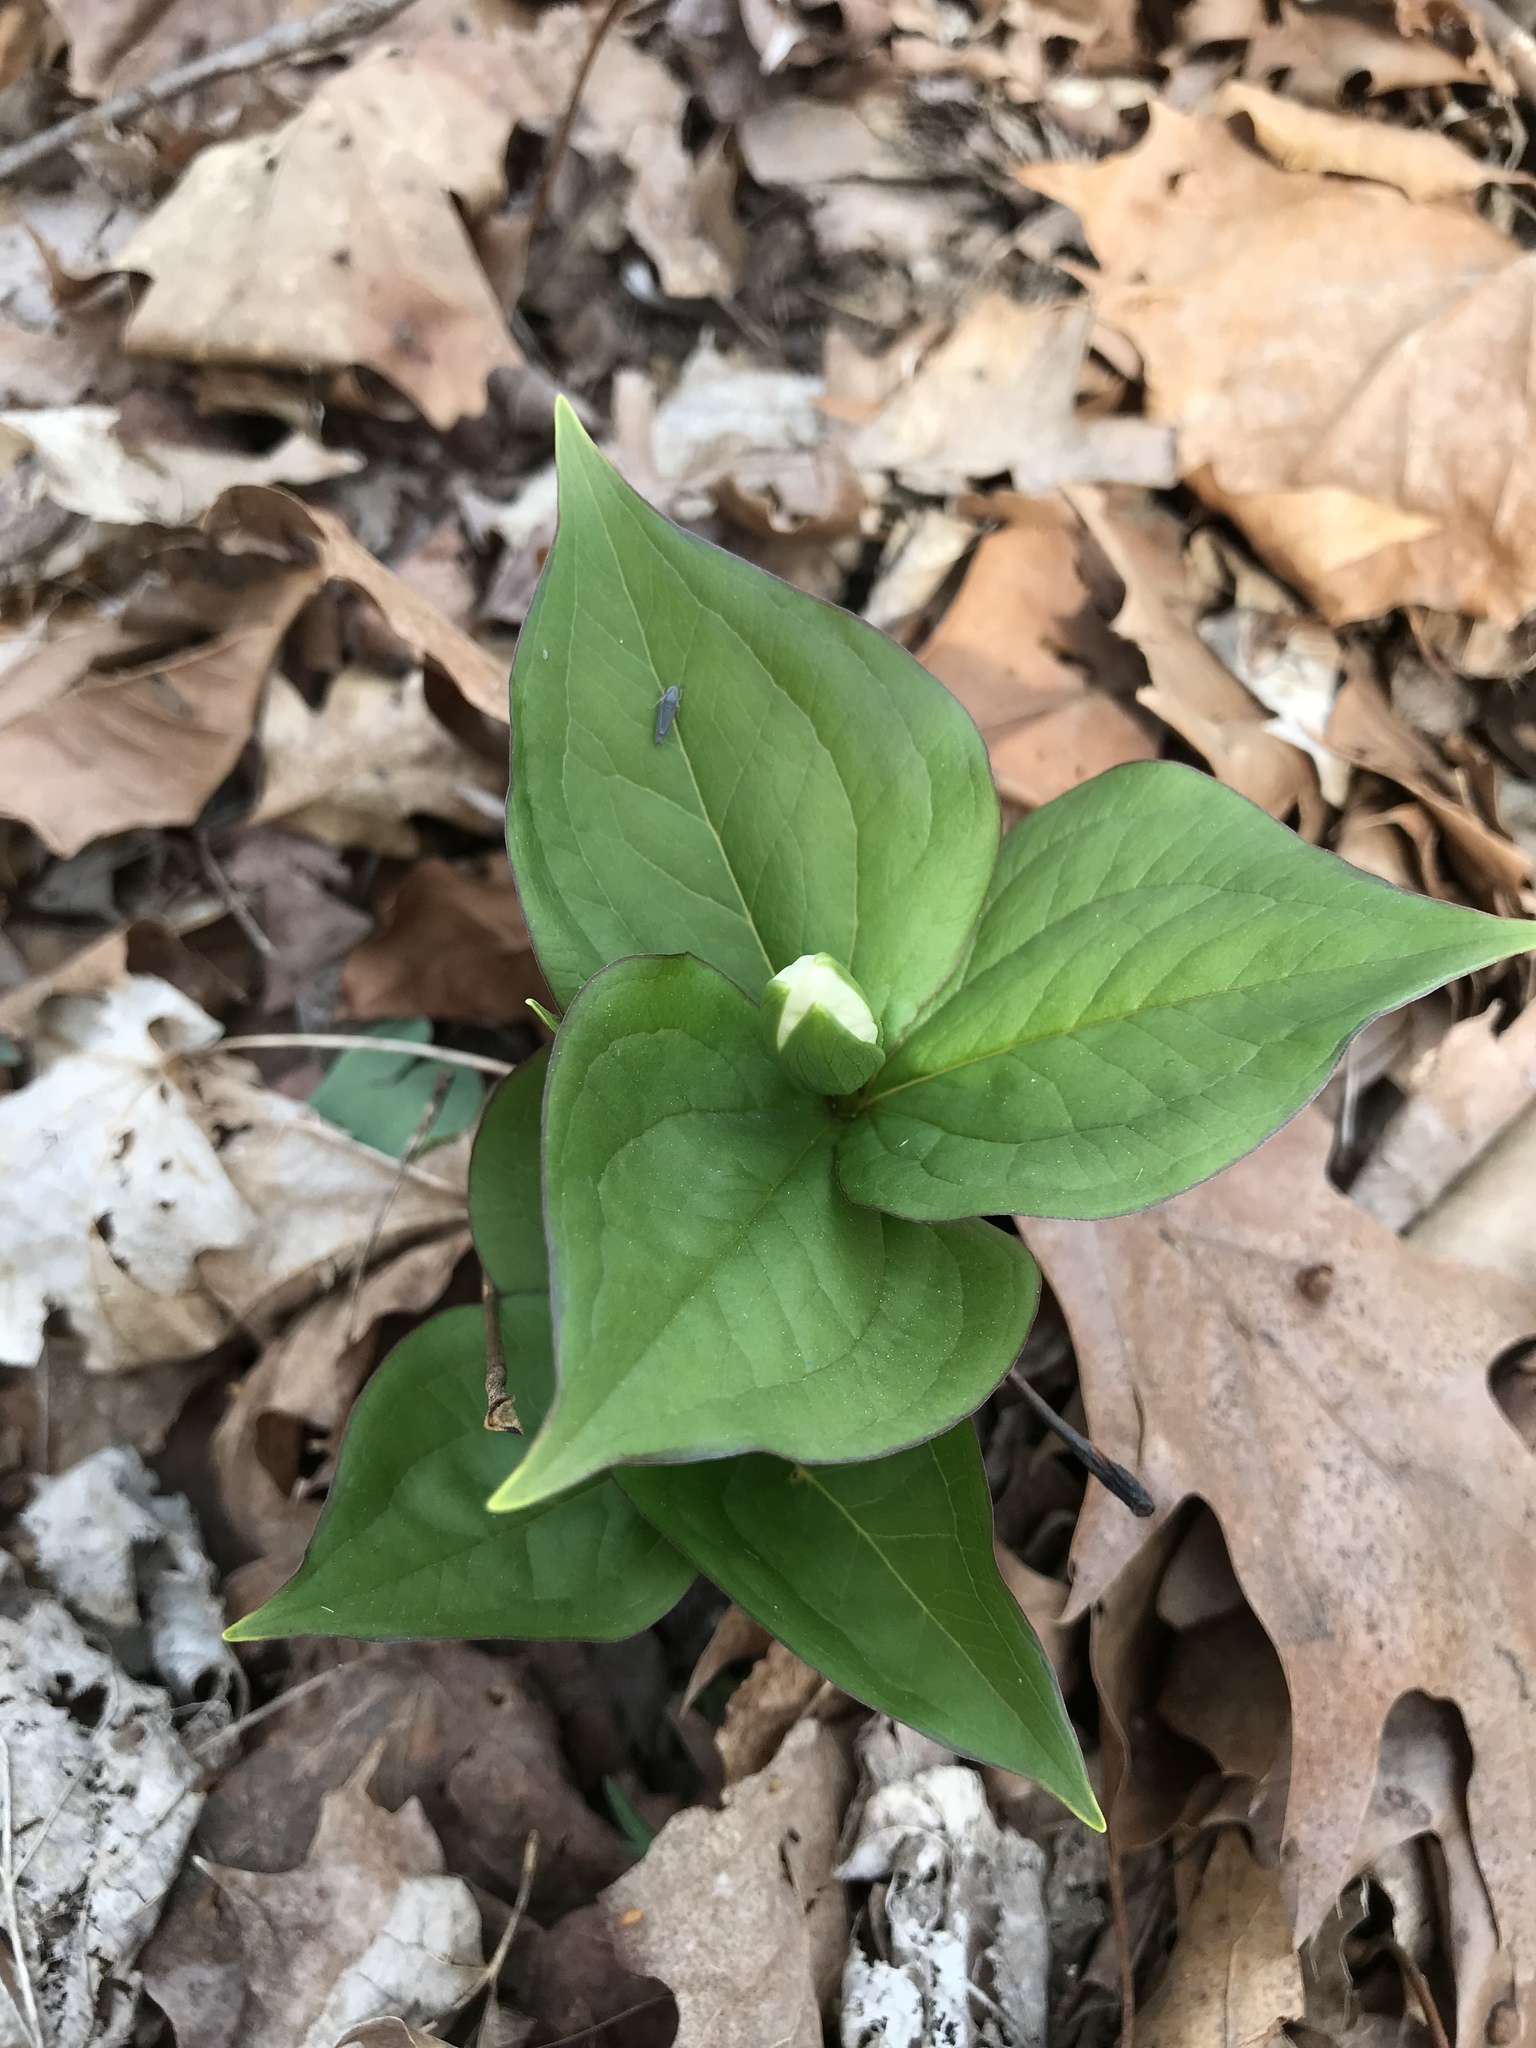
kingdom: Plantae
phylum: Tracheophyta
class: Liliopsida
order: Liliales
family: Melanthiaceae
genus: Trillium
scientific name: Trillium grandiflorum
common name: Great white trillium
